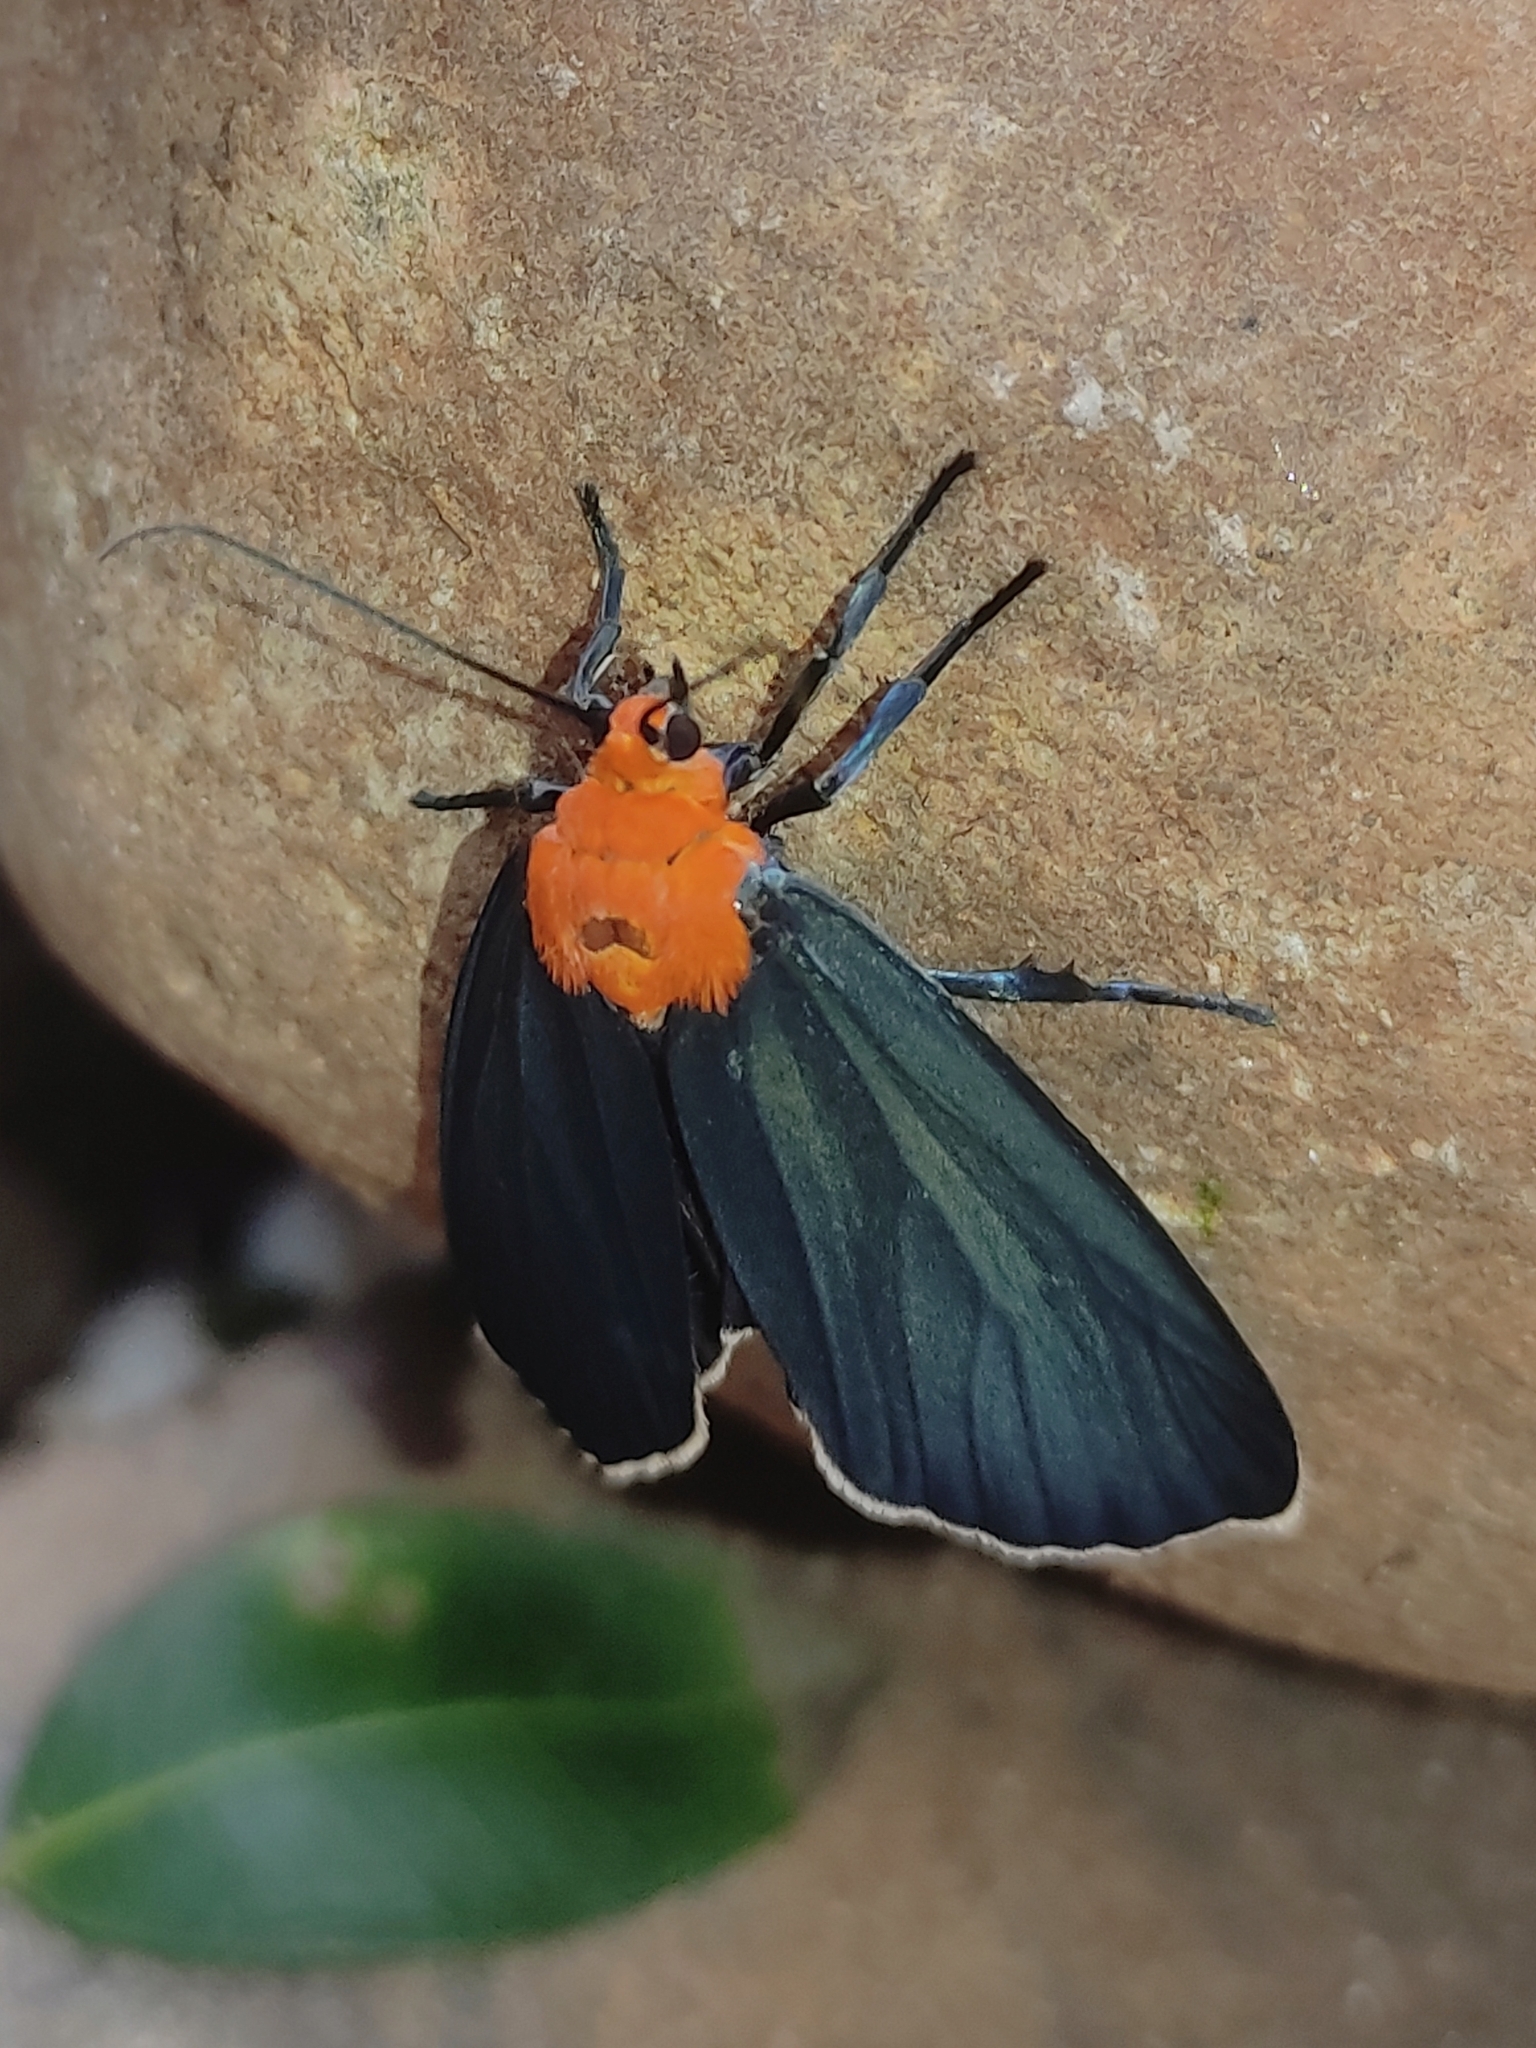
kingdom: Animalia
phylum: Arthropoda
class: Insecta
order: Lepidoptera
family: Erebidae
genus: Apistosia
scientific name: Apistosia judas
